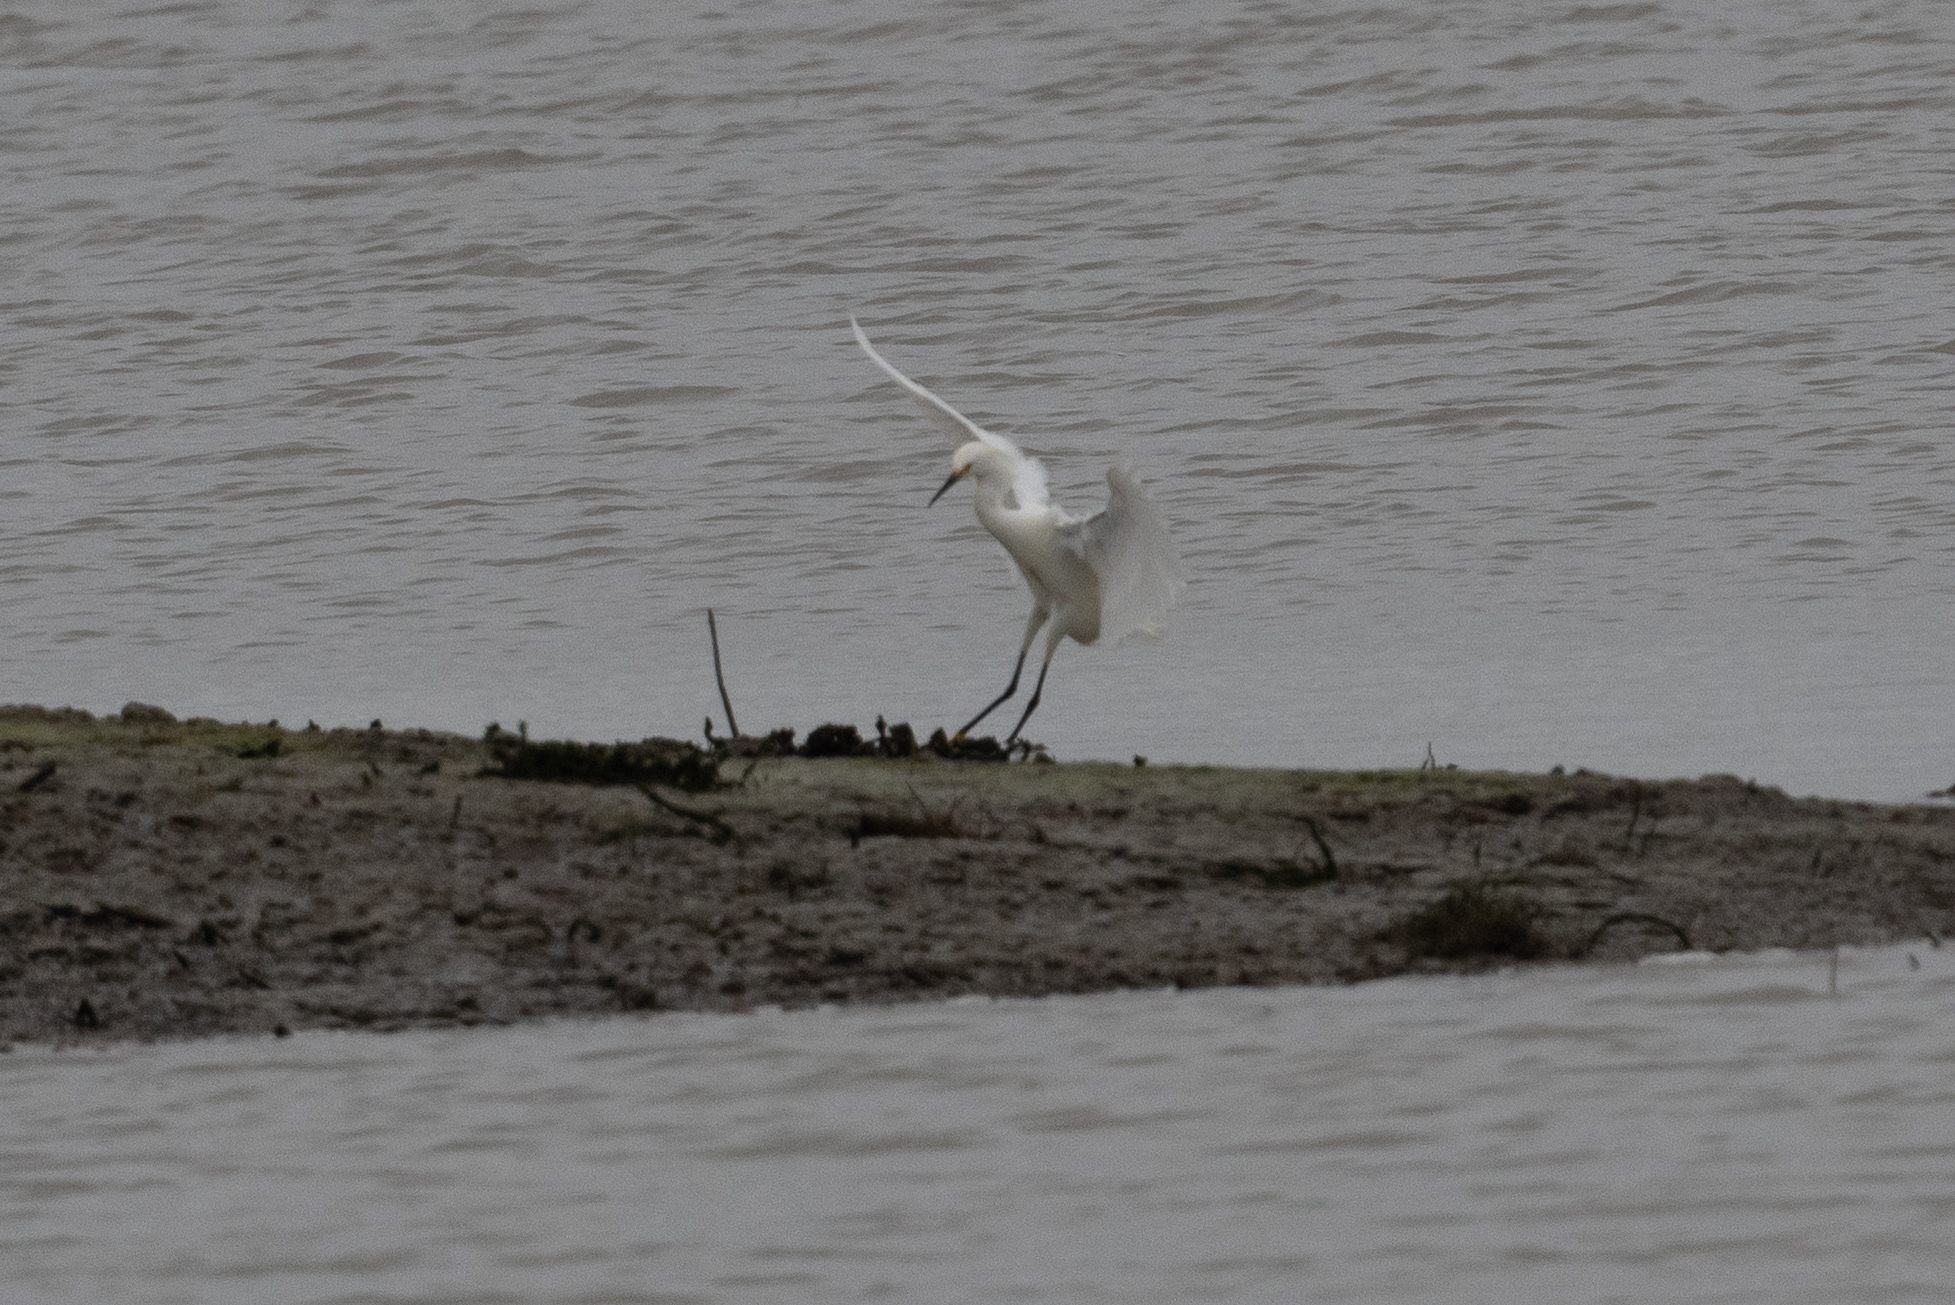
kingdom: Animalia
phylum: Chordata
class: Aves
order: Pelecaniformes
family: Ardeidae
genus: Egretta
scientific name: Egretta thula
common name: Snowy egret
